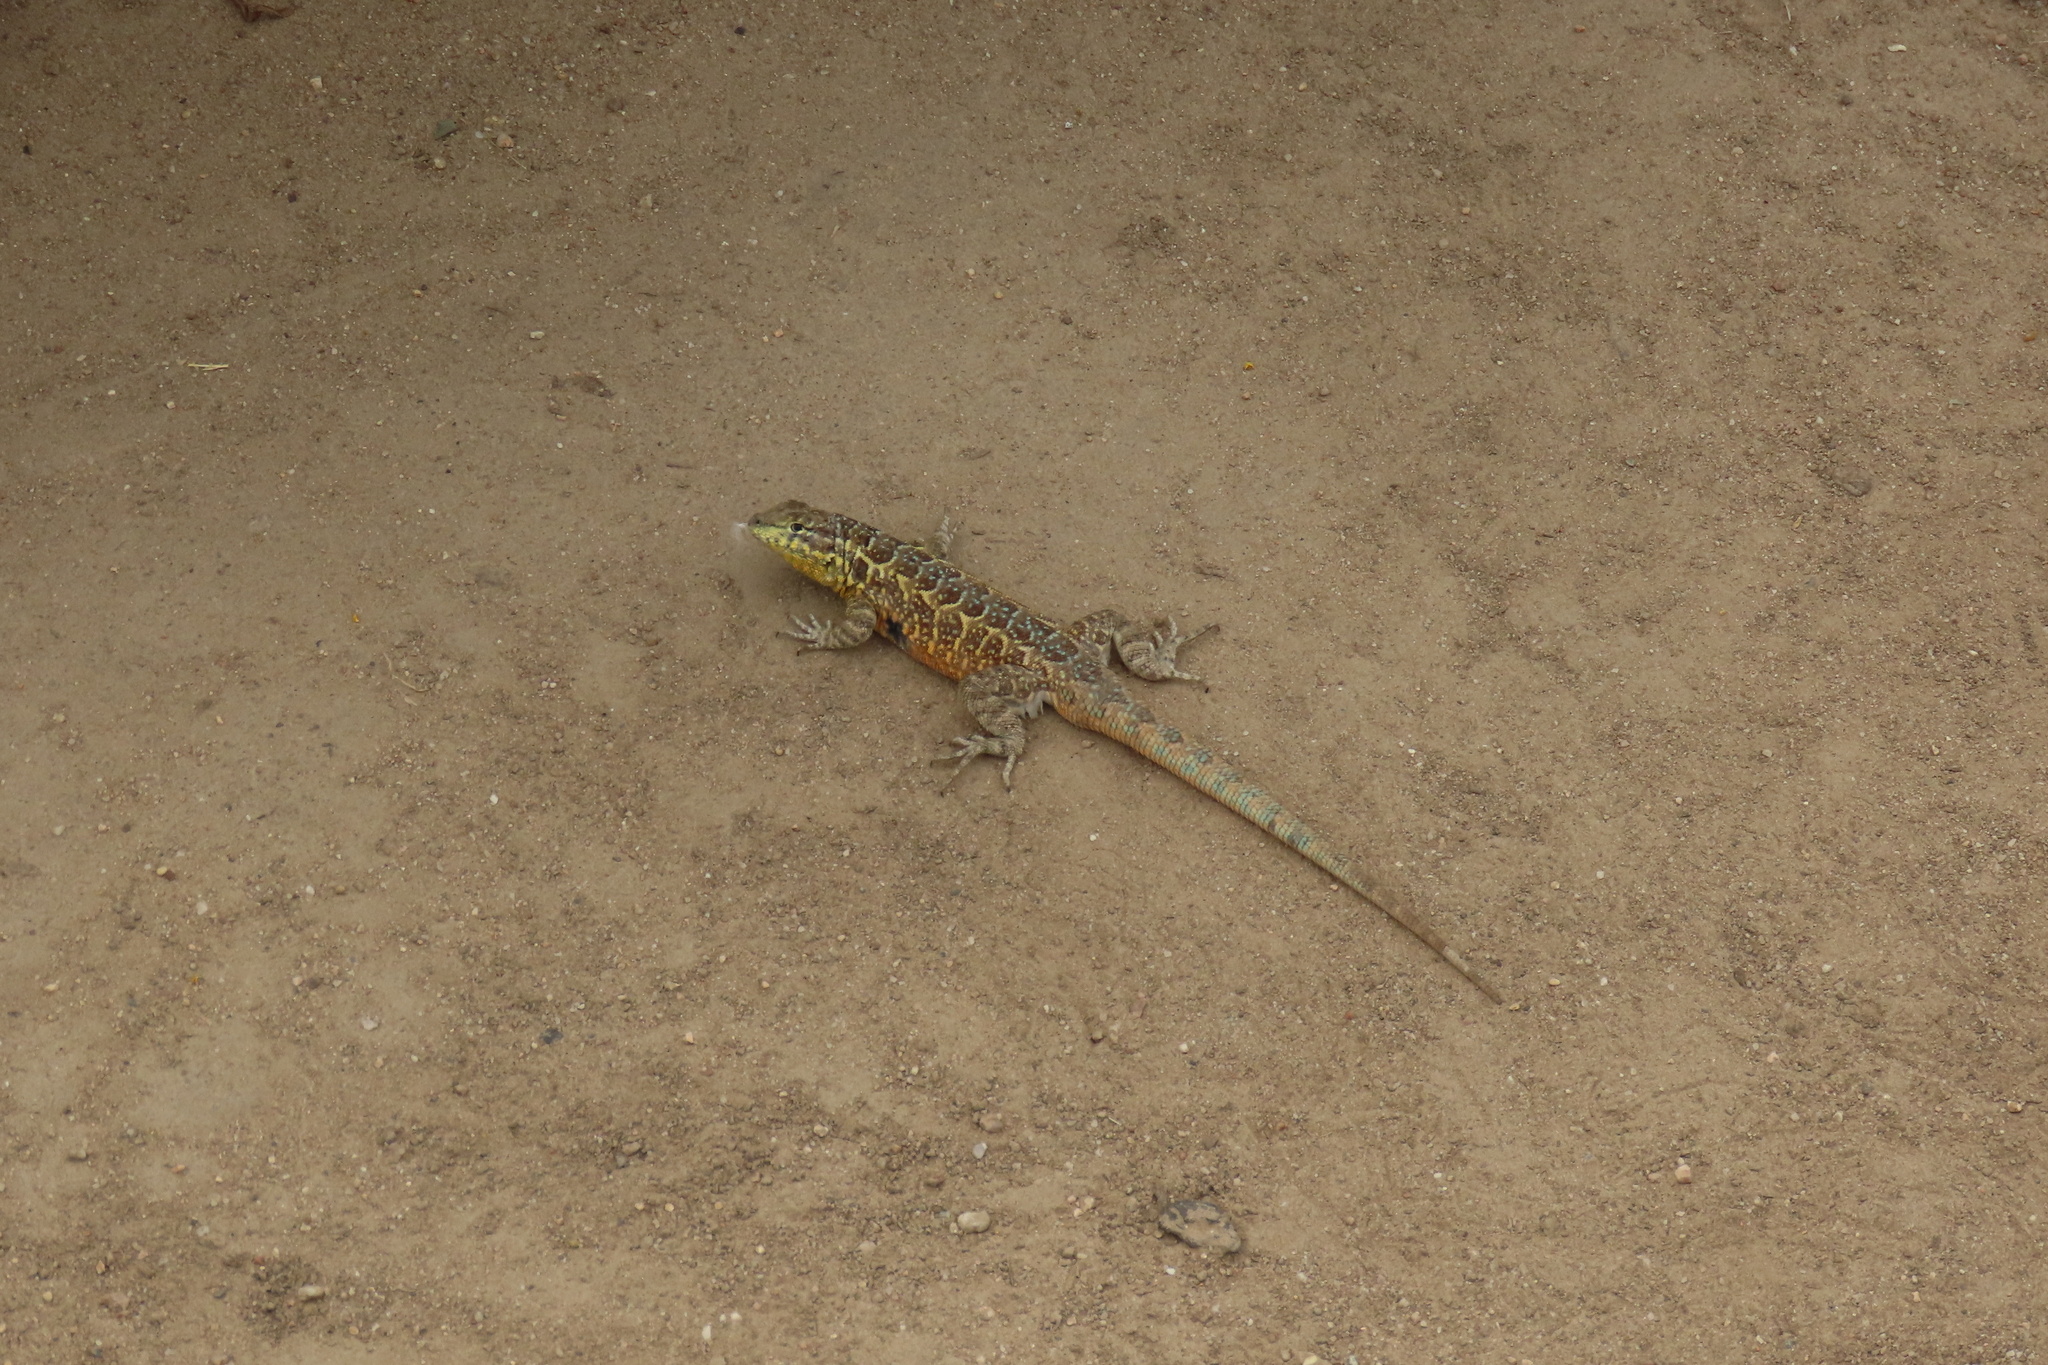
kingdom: Animalia
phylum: Chordata
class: Squamata
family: Phrynosomatidae
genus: Uta
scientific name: Uta stansburiana
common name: Side-blotched lizard
